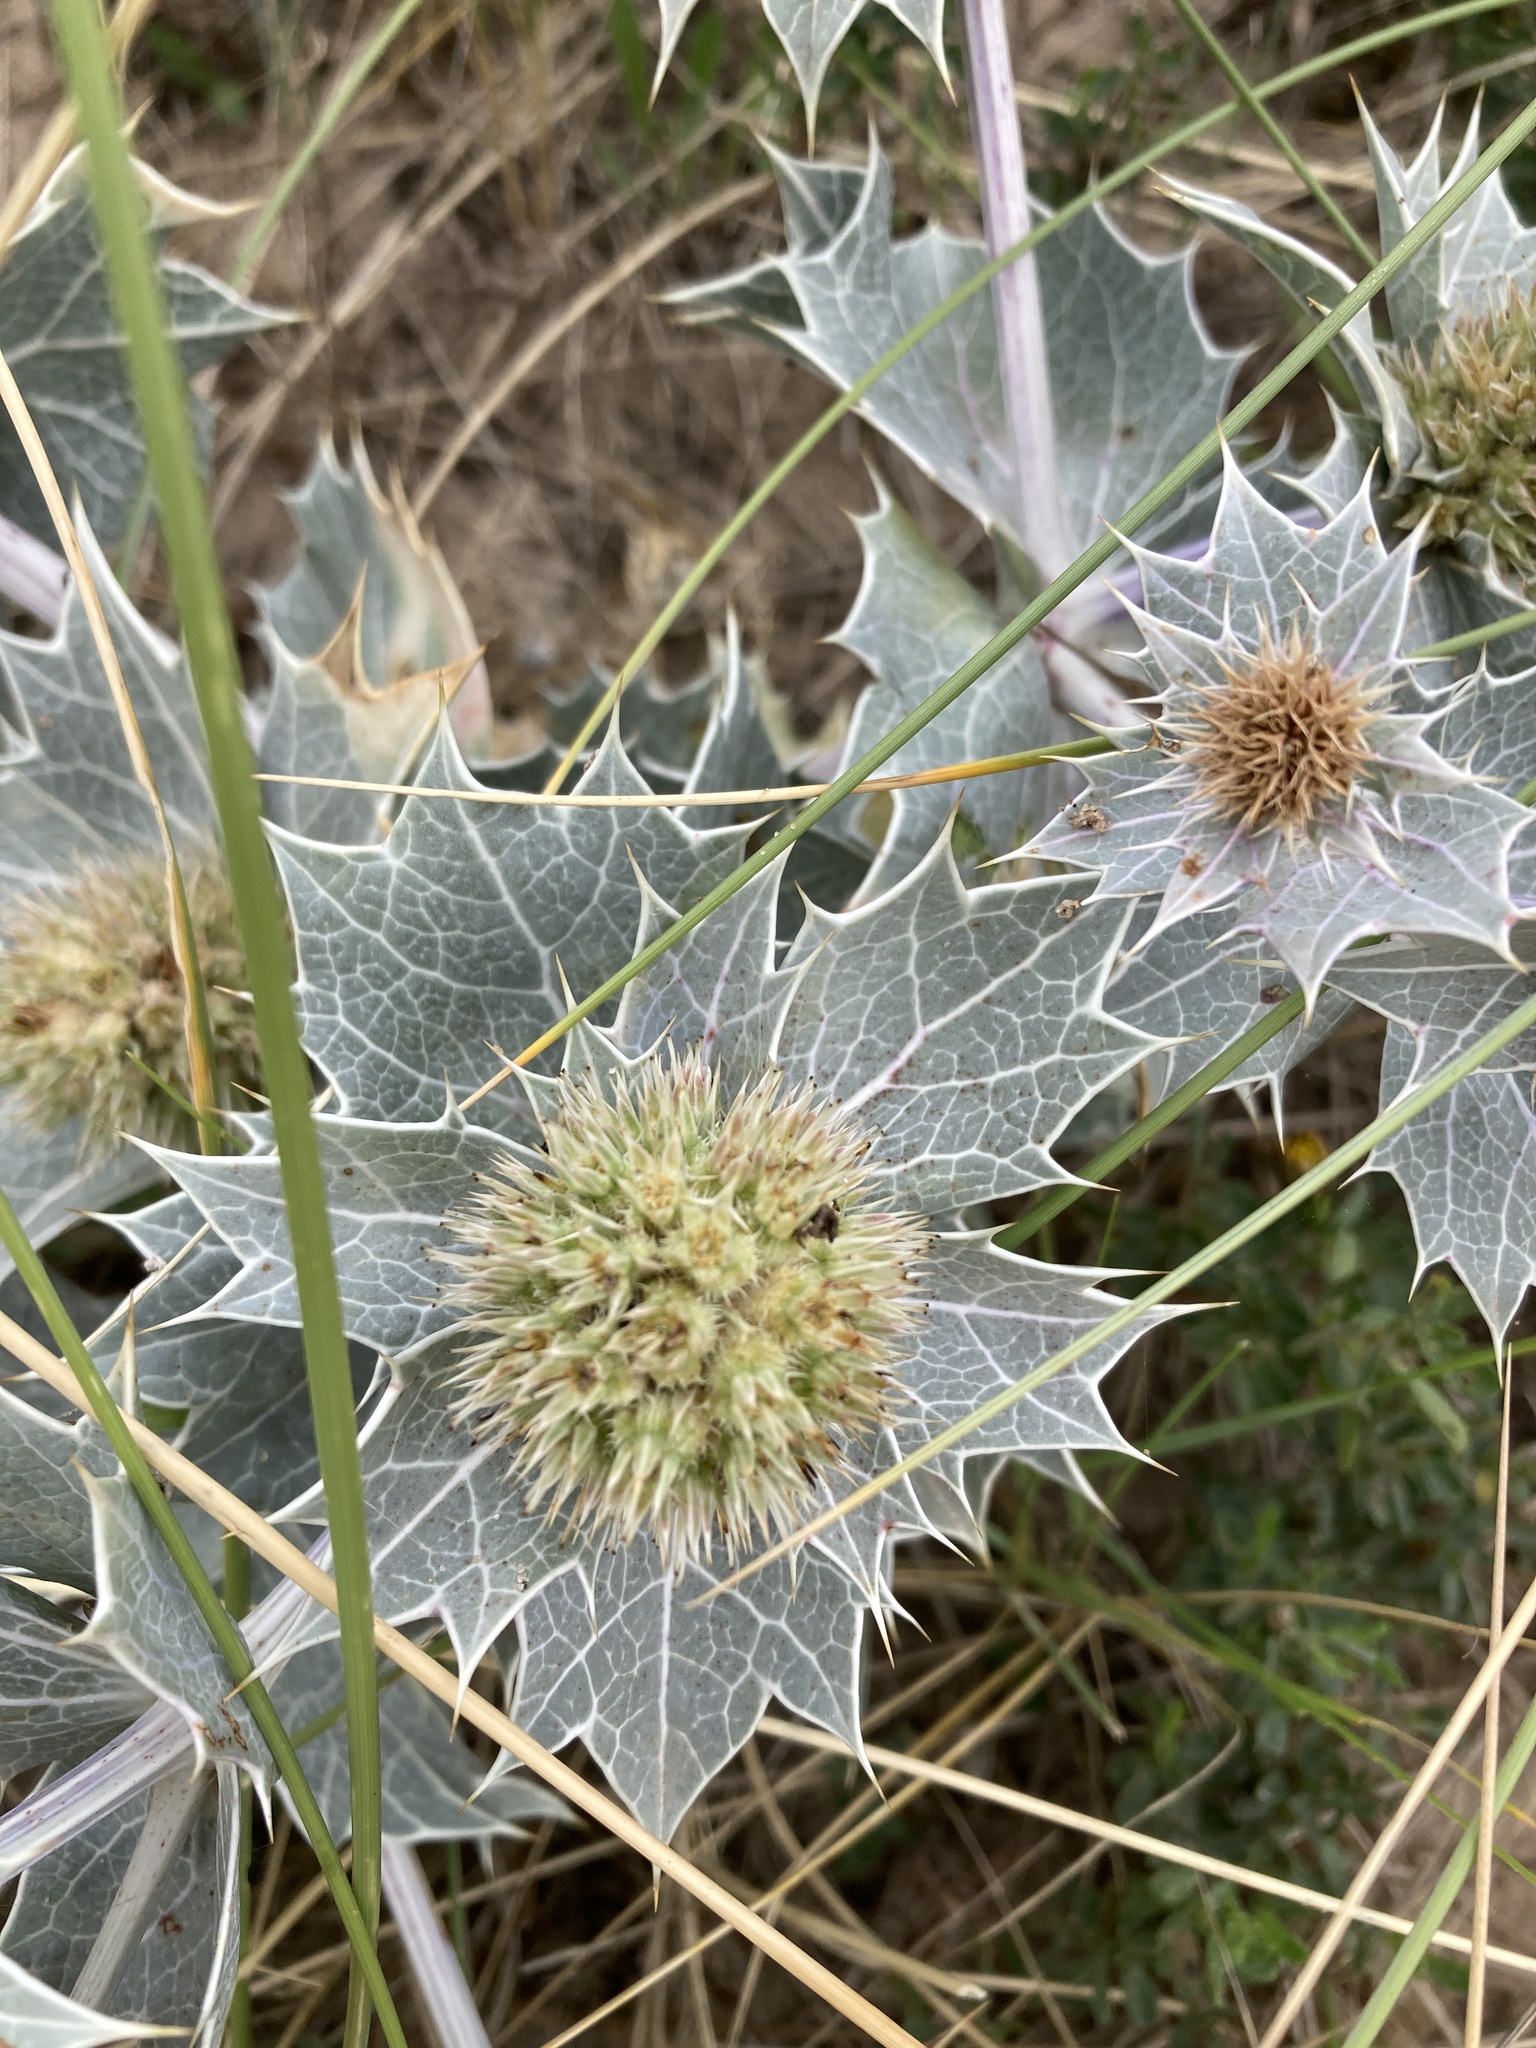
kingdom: Plantae
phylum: Tracheophyta
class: Magnoliopsida
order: Apiales
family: Apiaceae
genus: Eryngium
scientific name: Eryngium maritimum
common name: Sea-holly
